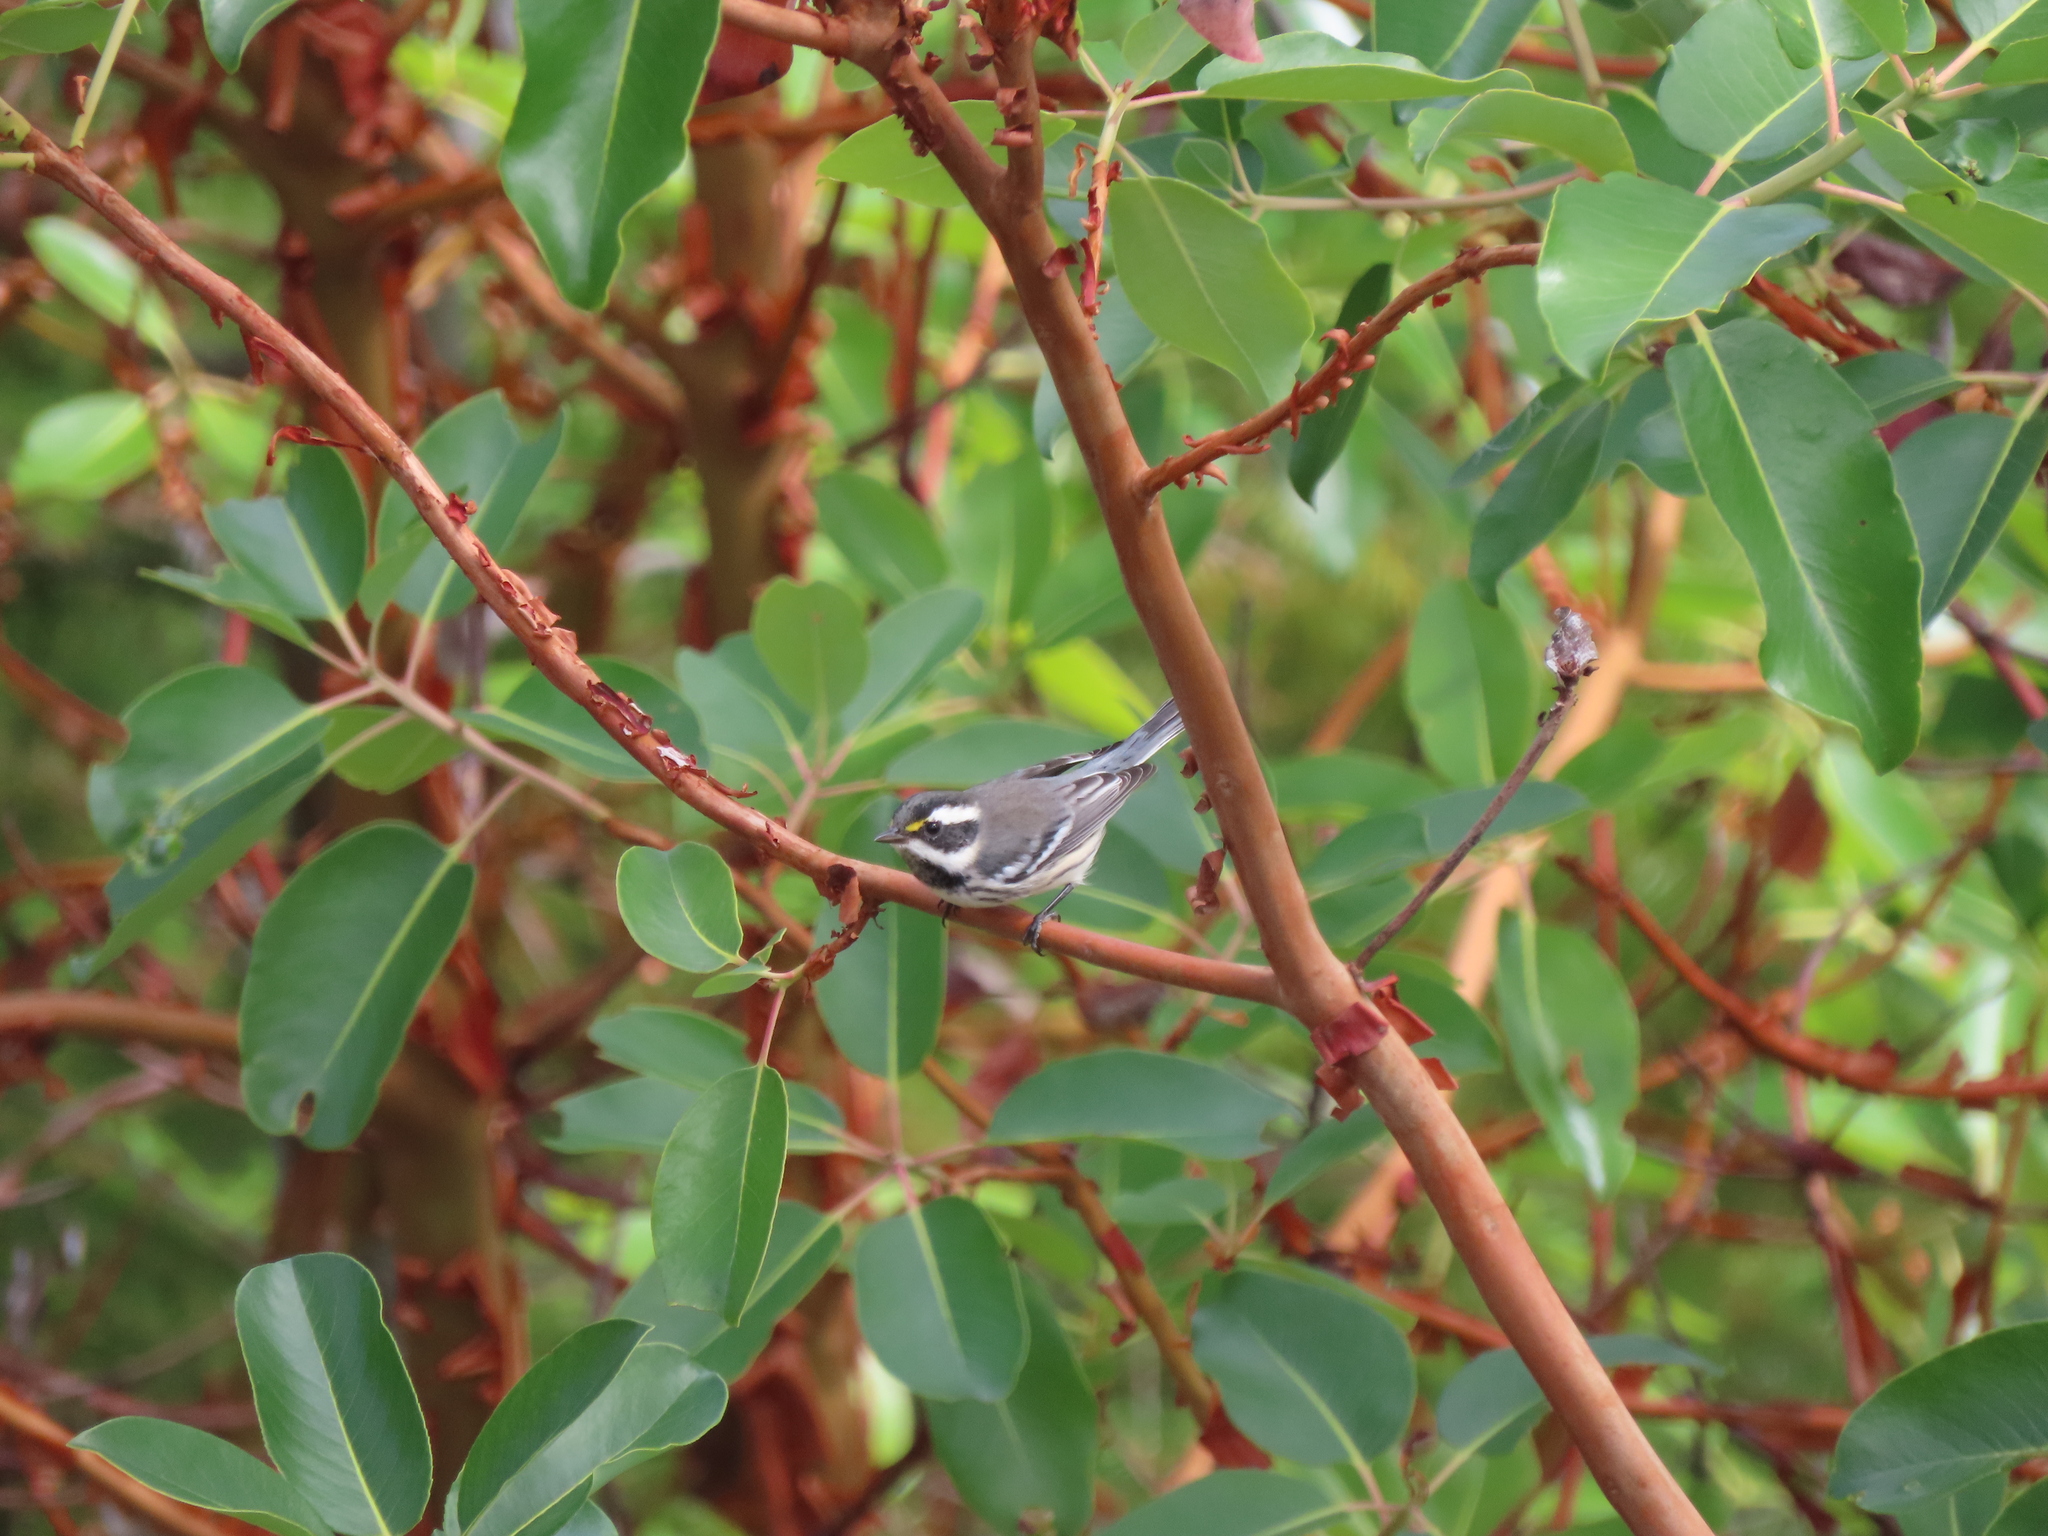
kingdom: Animalia
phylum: Chordata
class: Aves
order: Passeriformes
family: Parulidae
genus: Setophaga
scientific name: Setophaga nigrescens
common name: Black-throated gray warbler
